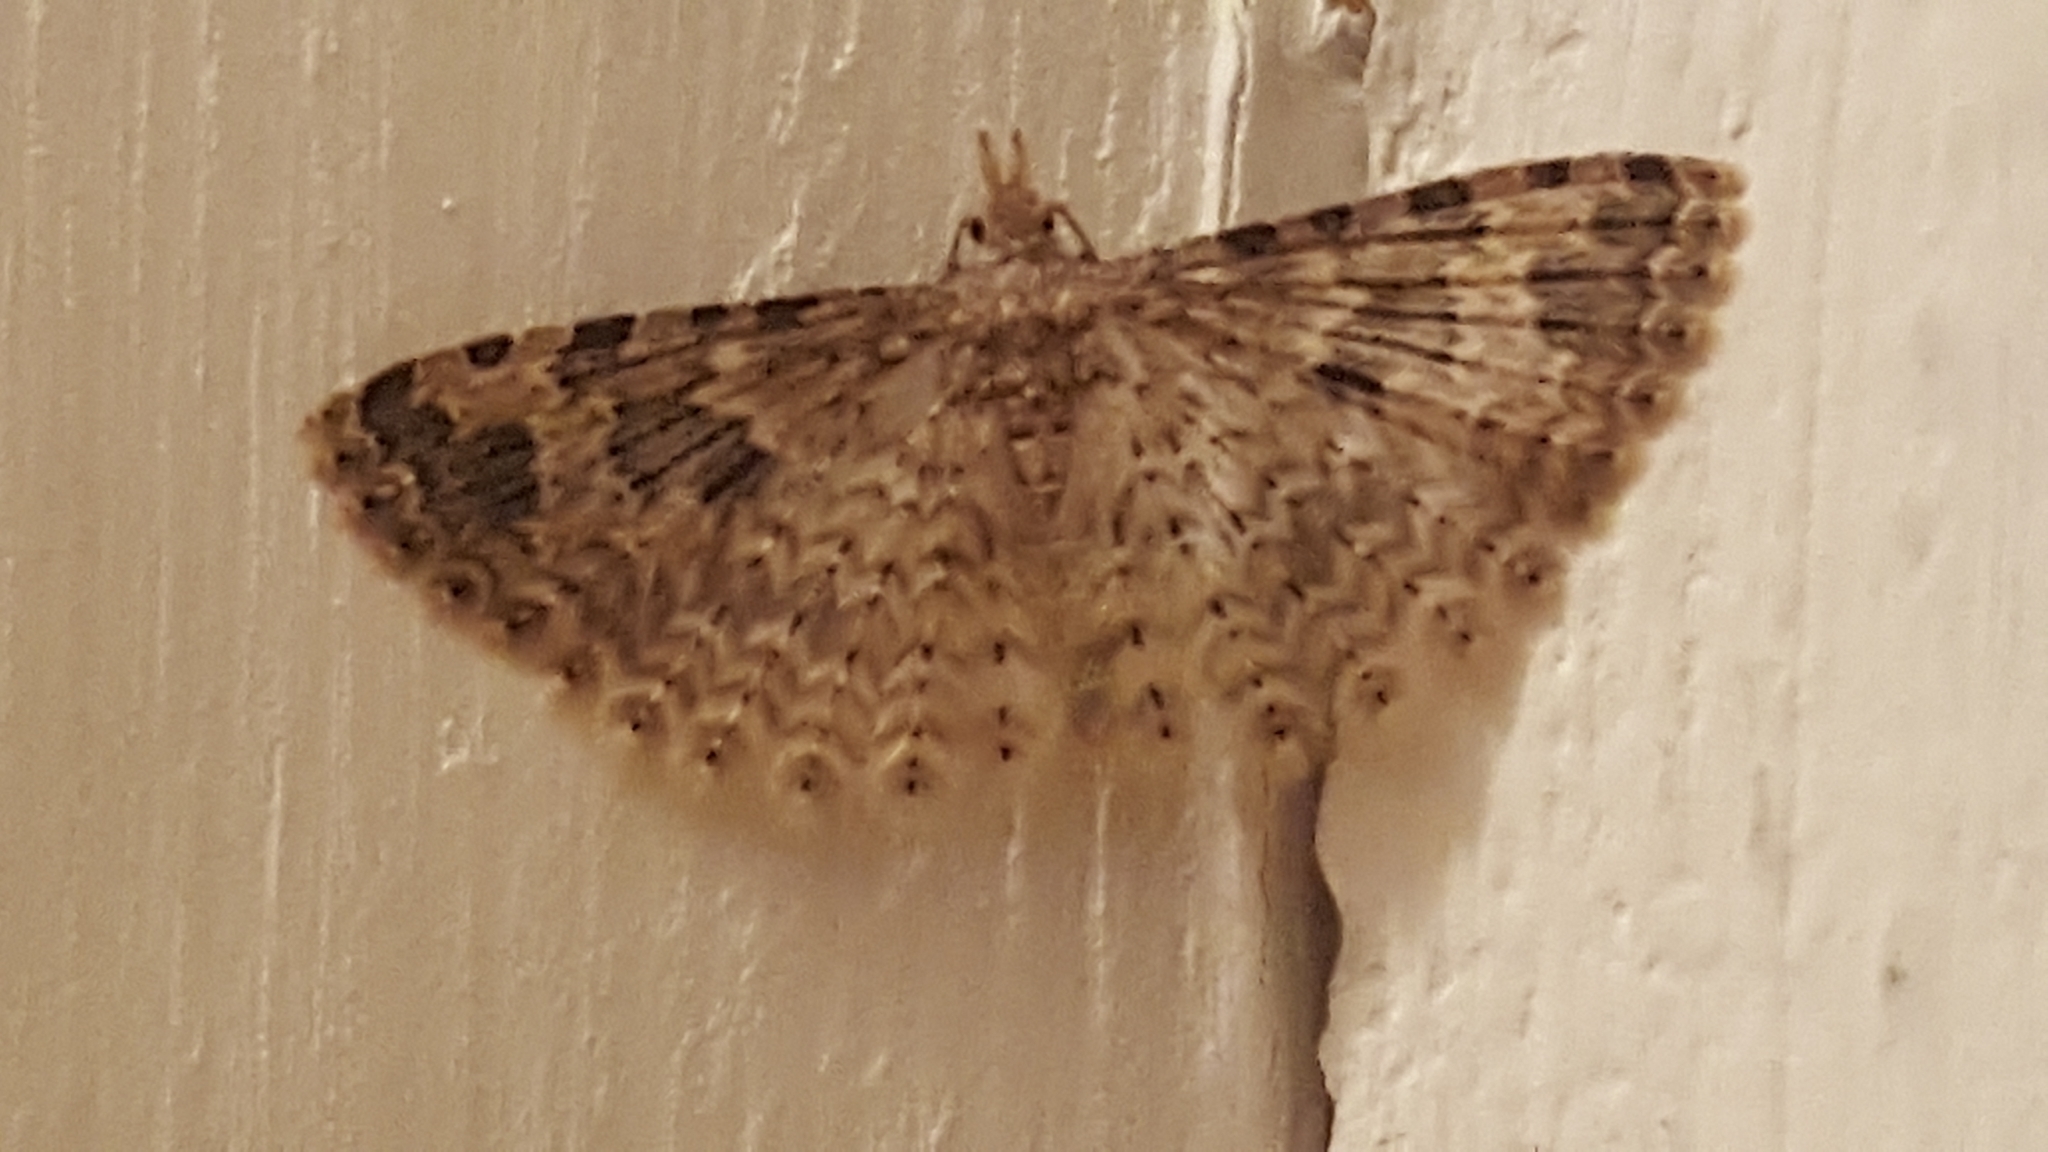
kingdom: Animalia
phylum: Arthropoda
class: Insecta
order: Lepidoptera
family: Alucitidae
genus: Alucita
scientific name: Alucita hexadactyla
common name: Twenty-plume moth
